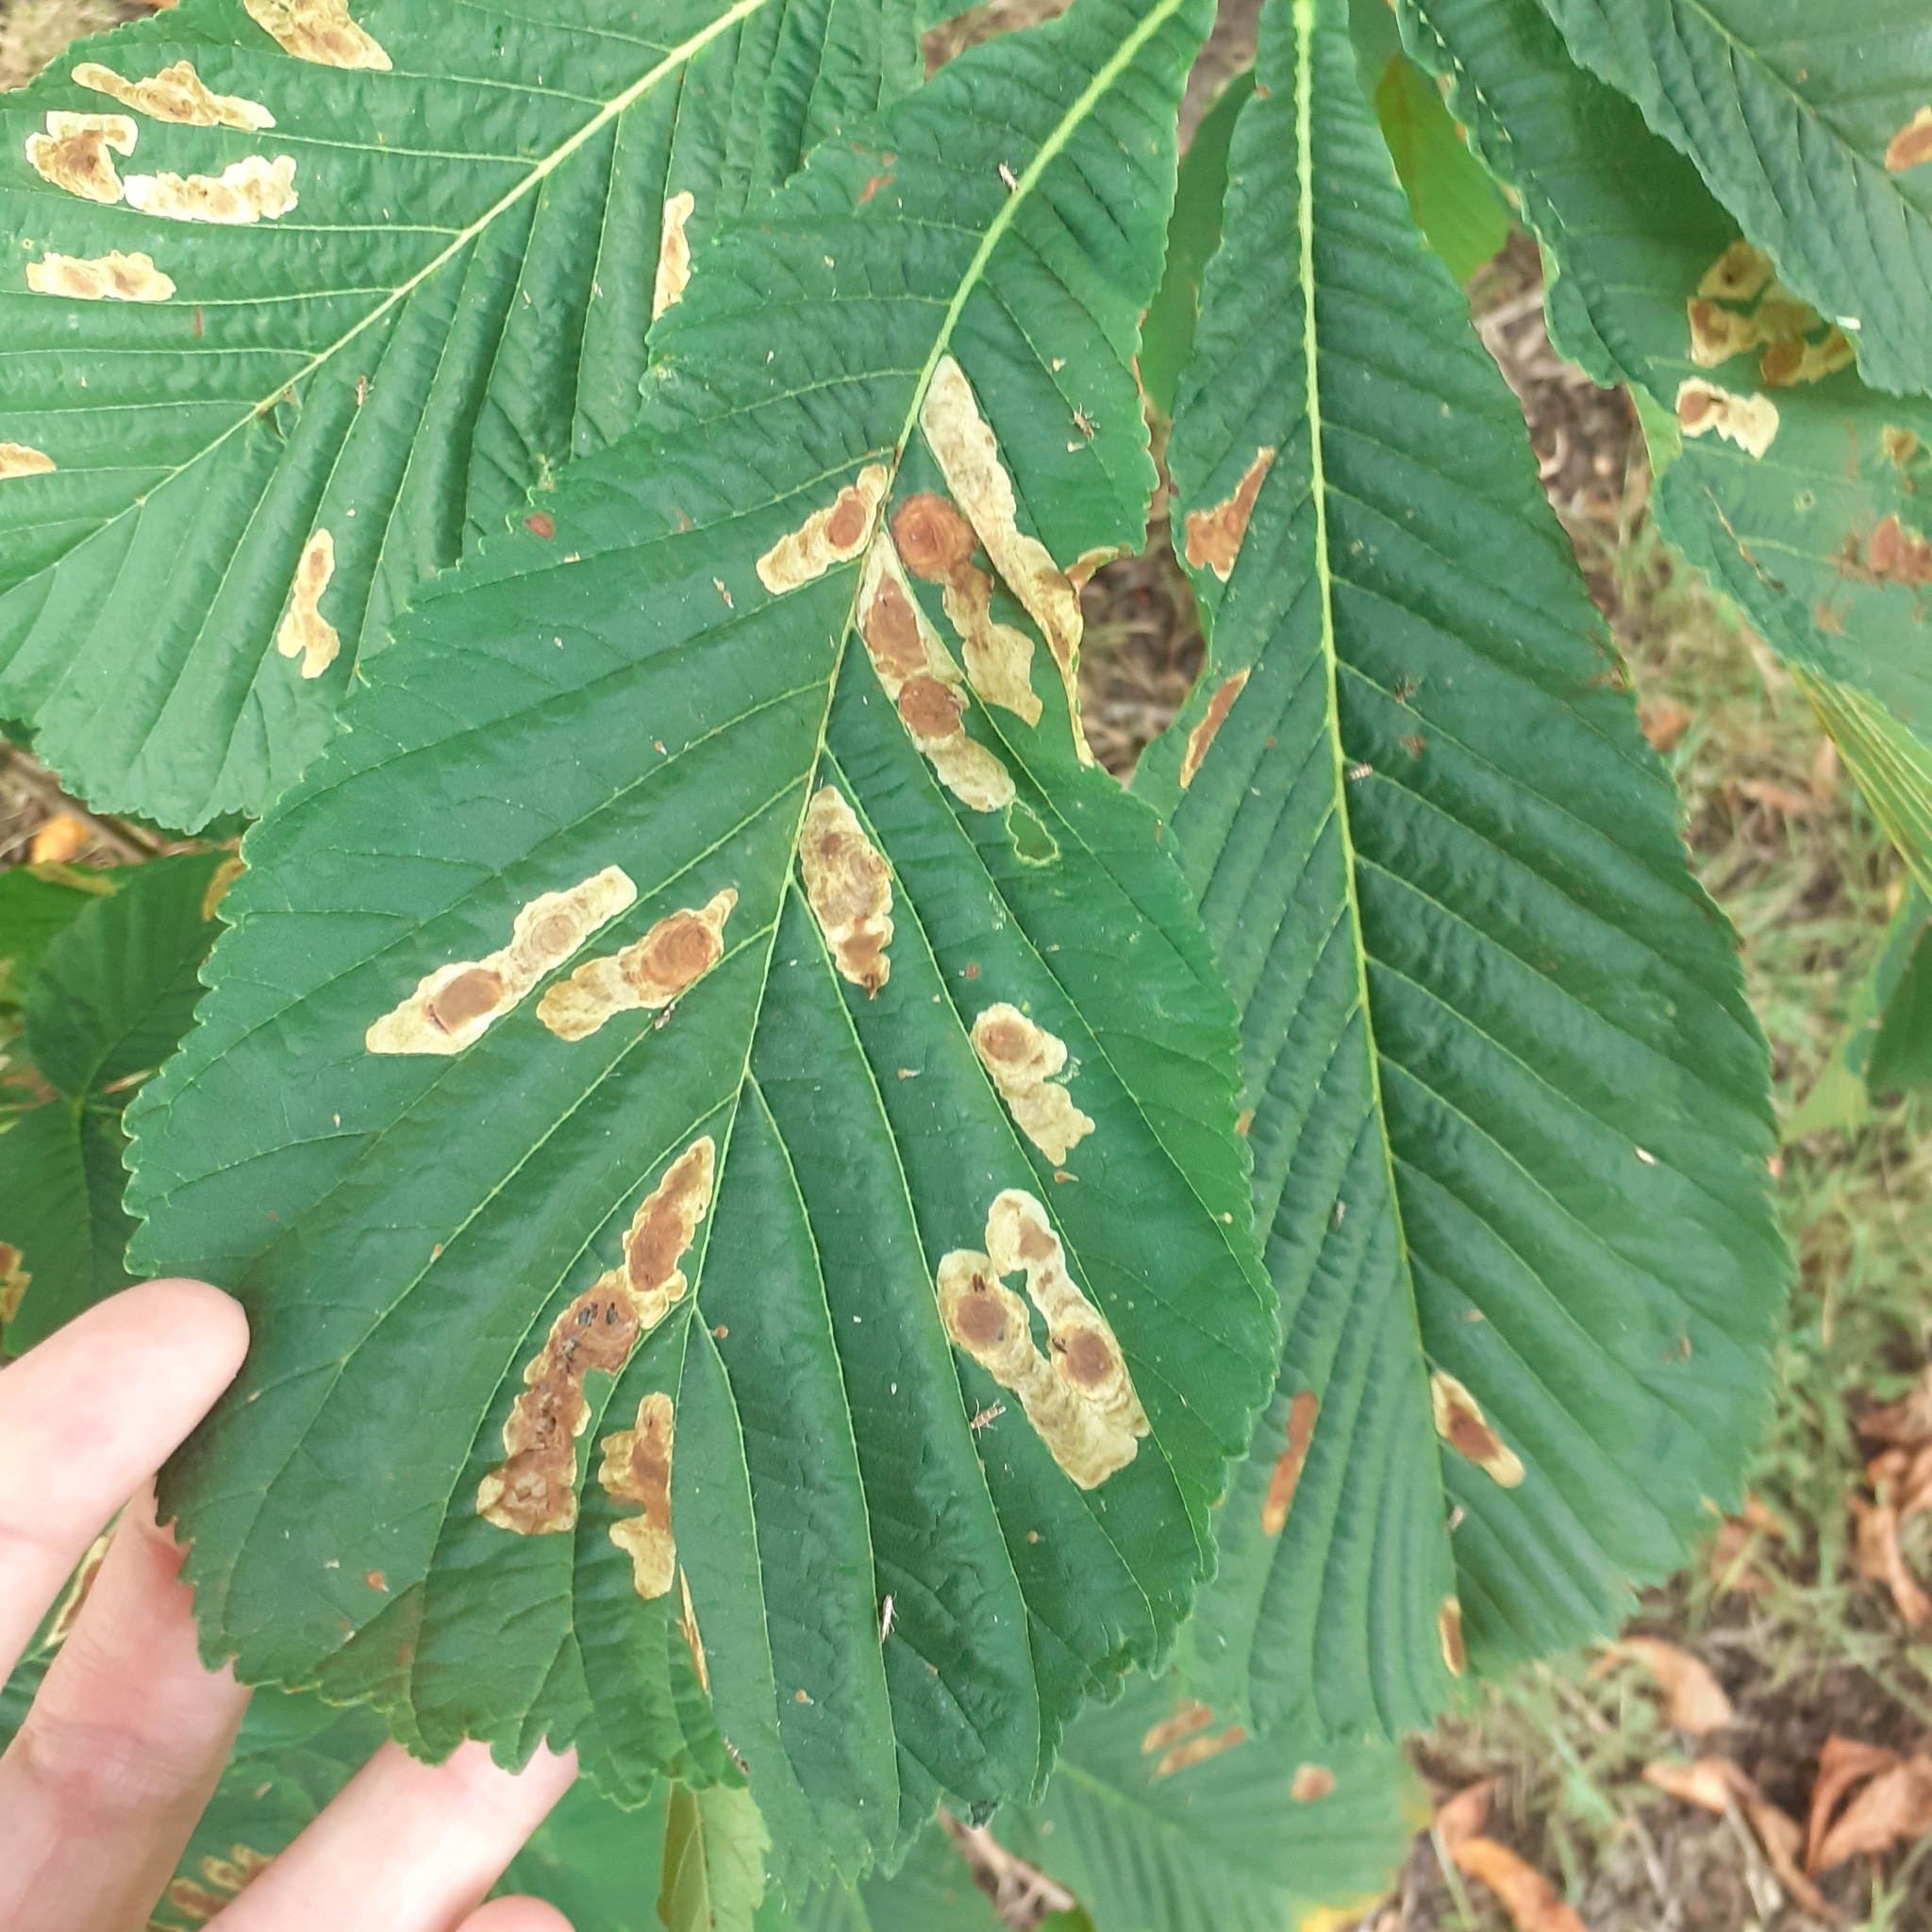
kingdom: Animalia
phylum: Arthropoda
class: Insecta
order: Lepidoptera
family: Gracillariidae
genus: Cameraria
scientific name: Cameraria ohridella
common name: Horse-chestnut leaf-miner
